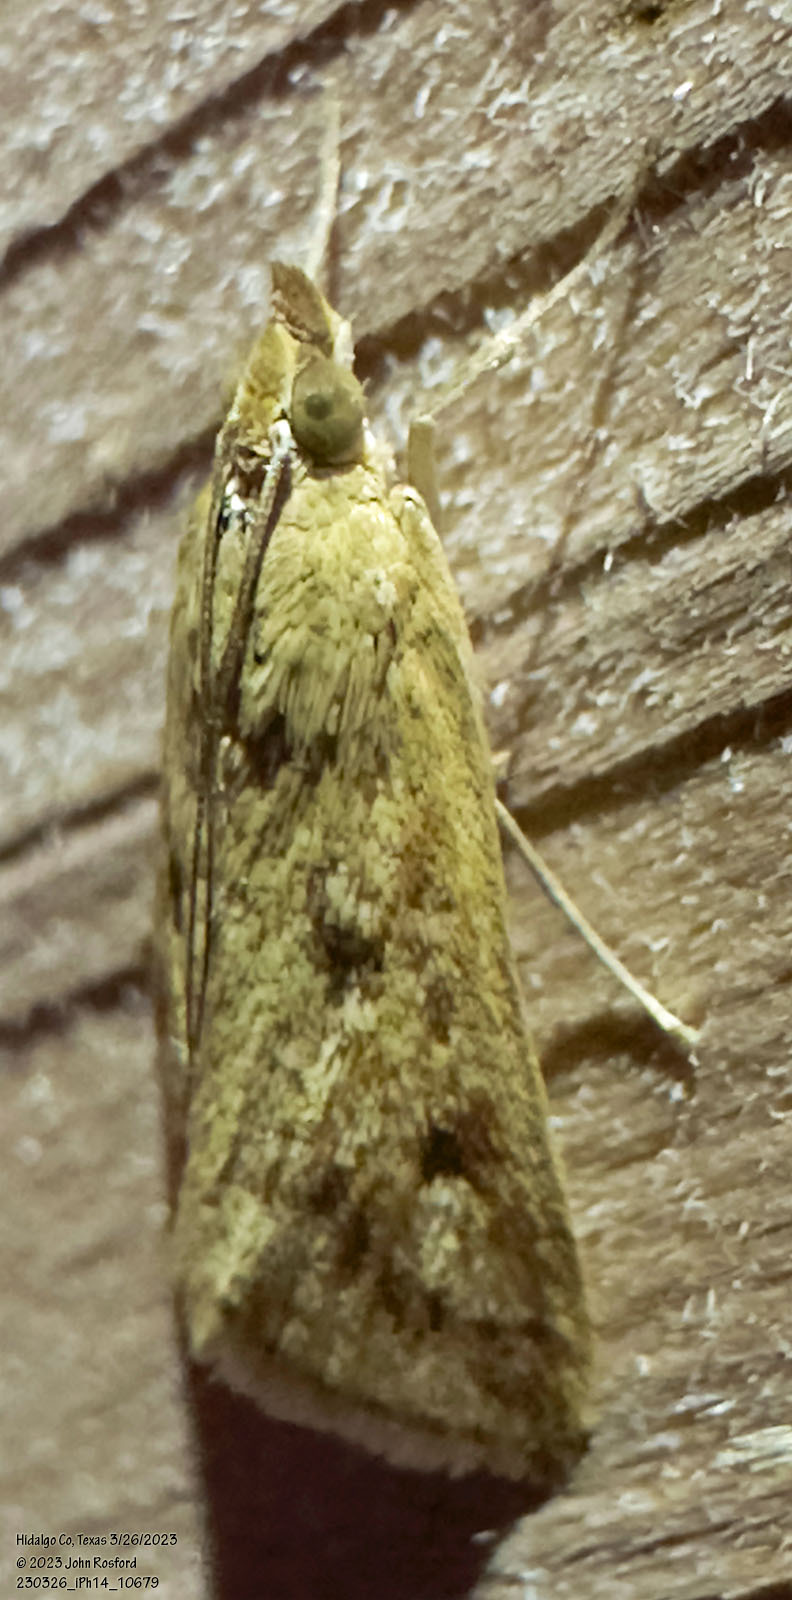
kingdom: Animalia
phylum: Arthropoda
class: Insecta
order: Lepidoptera
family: Crambidae
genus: Achyra
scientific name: Achyra rantalis
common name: Garden webworm
